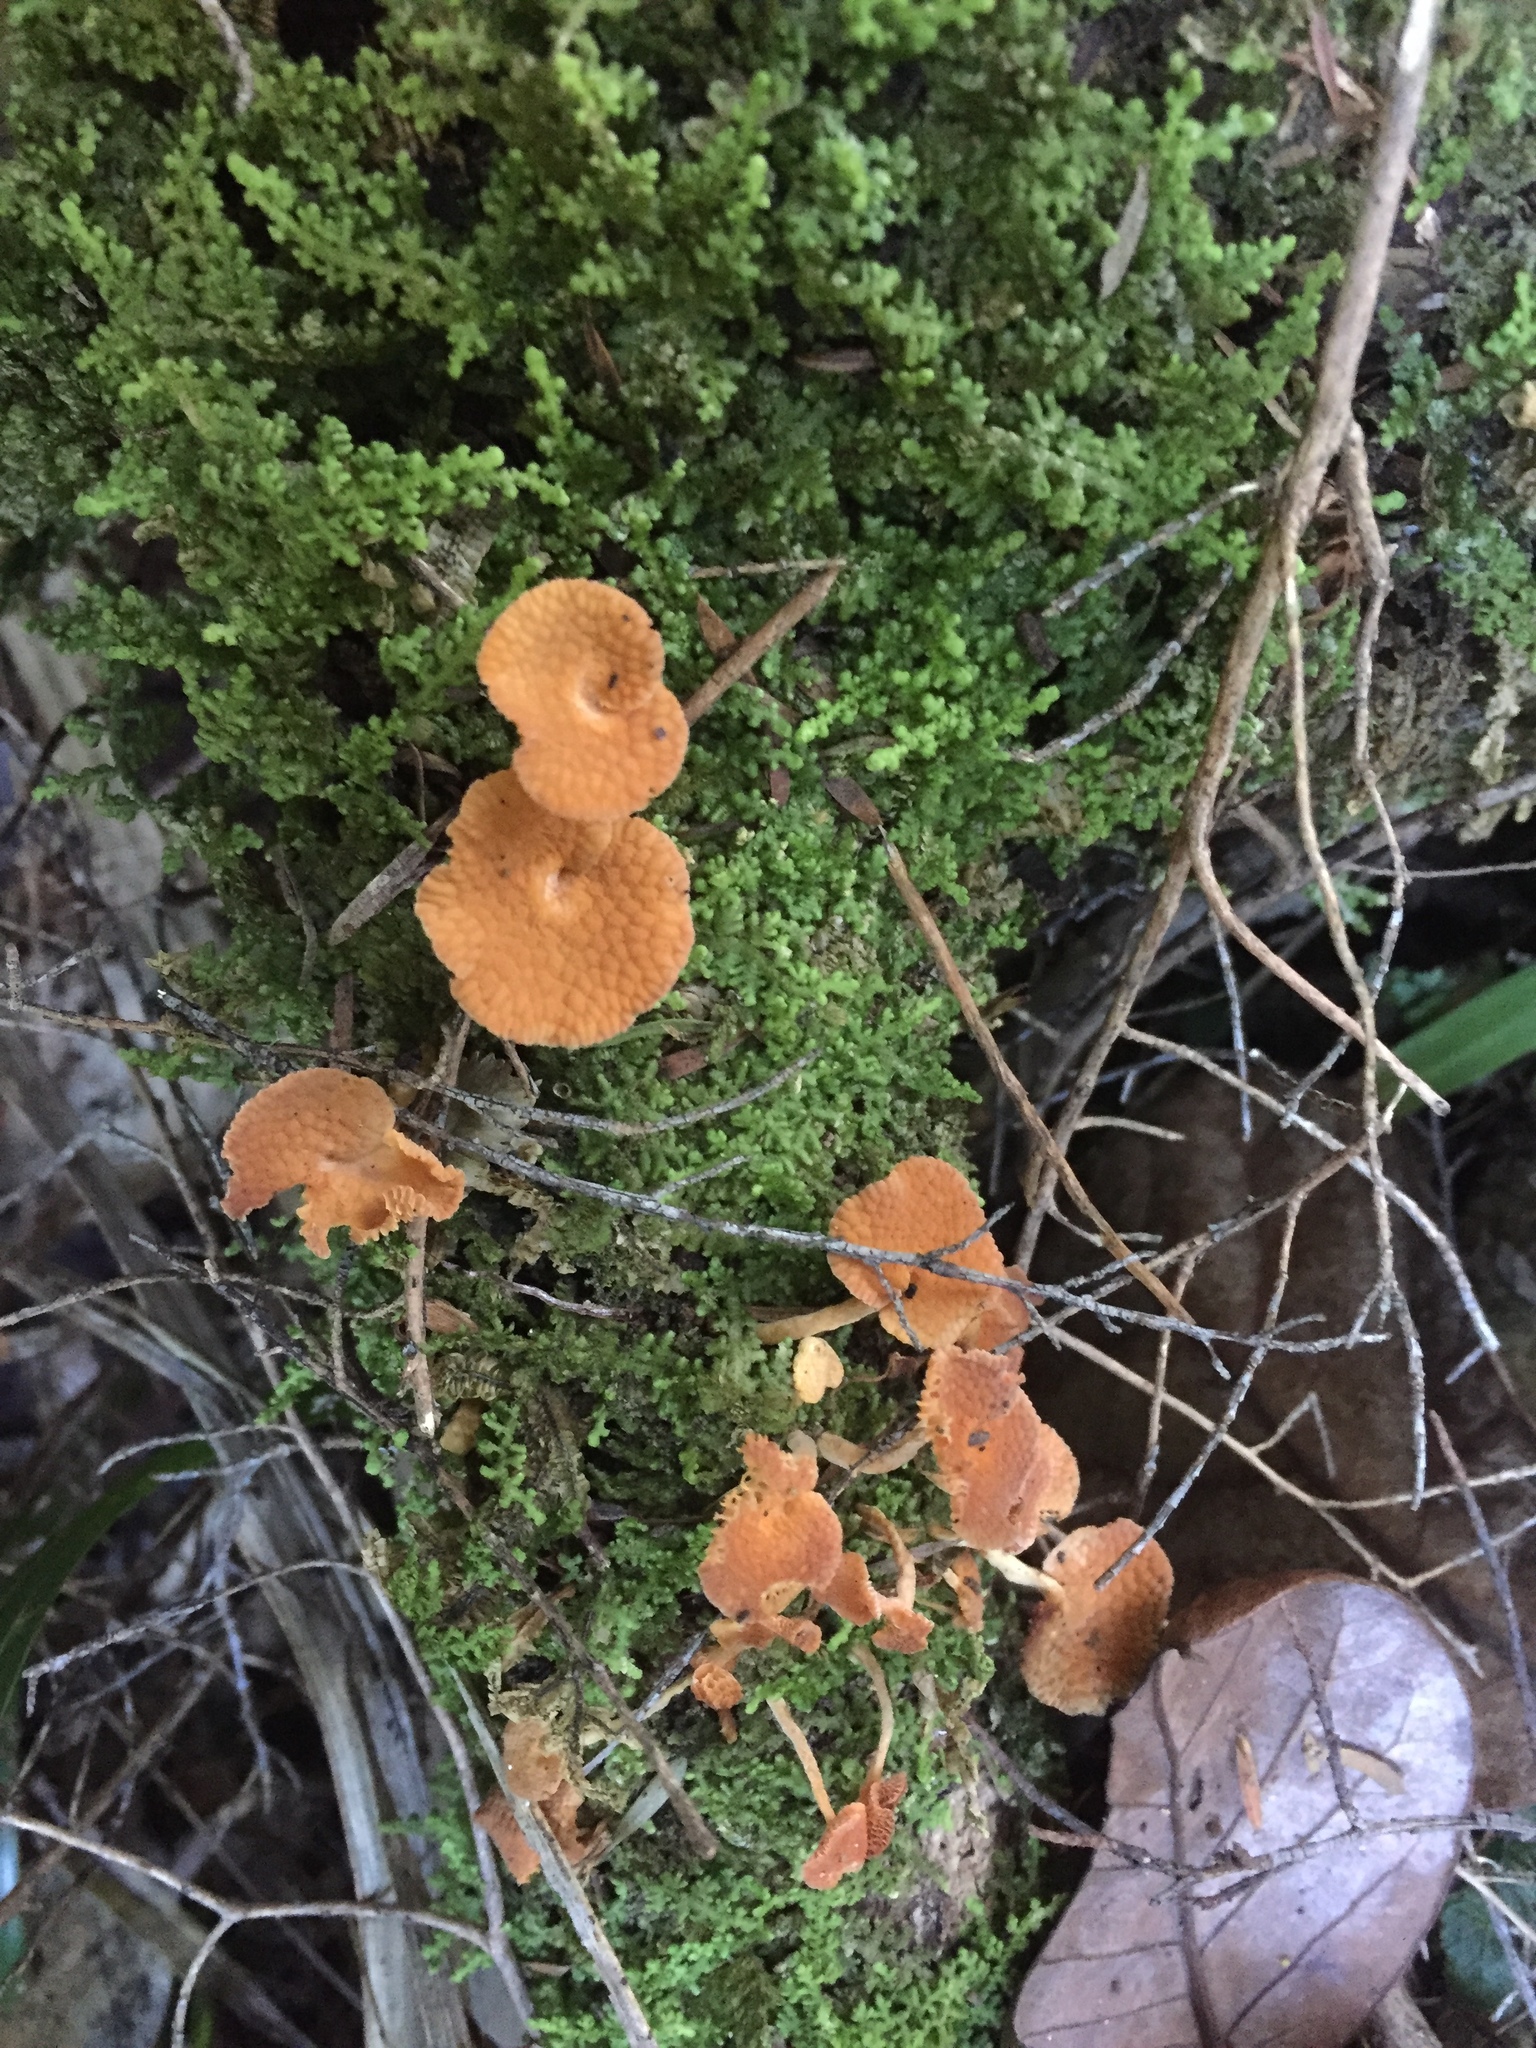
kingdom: Fungi
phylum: Basidiomycota
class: Agaricomycetes
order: Agaricales
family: Mycenaceae
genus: Favolaschia
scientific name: Favolaschia claudopus
